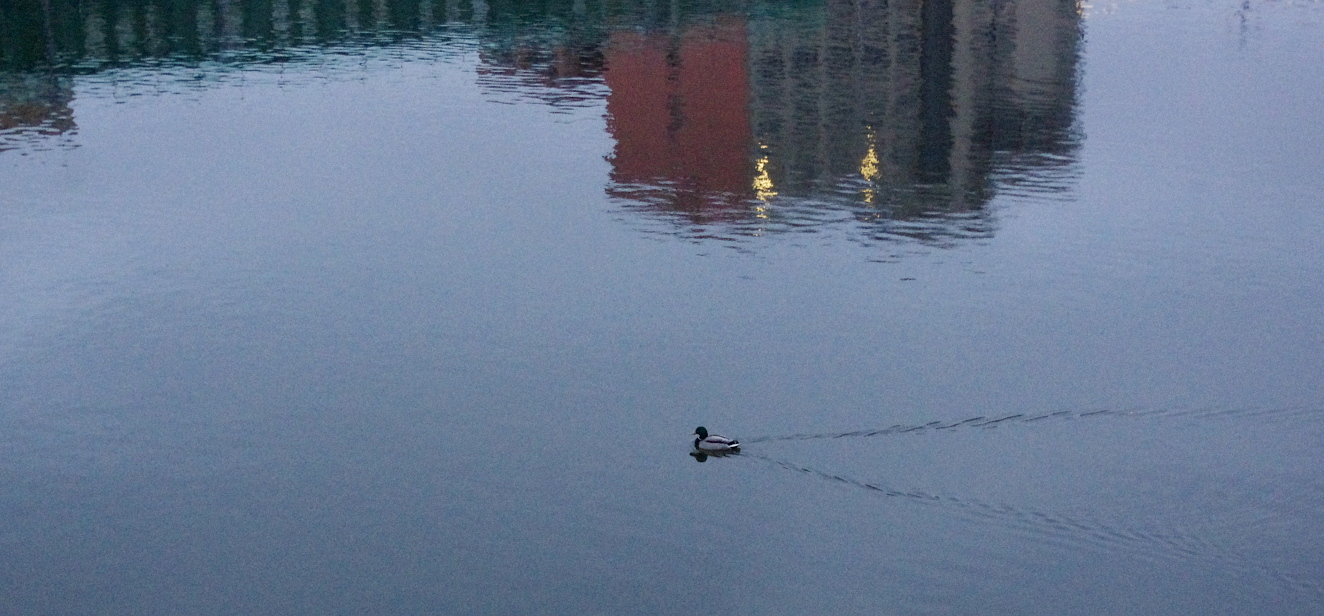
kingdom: Animalia
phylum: Chordata
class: Aves
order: Anseriformes
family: Anatidae
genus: Anas
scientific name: Anas platyrhynchos
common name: Mallard
